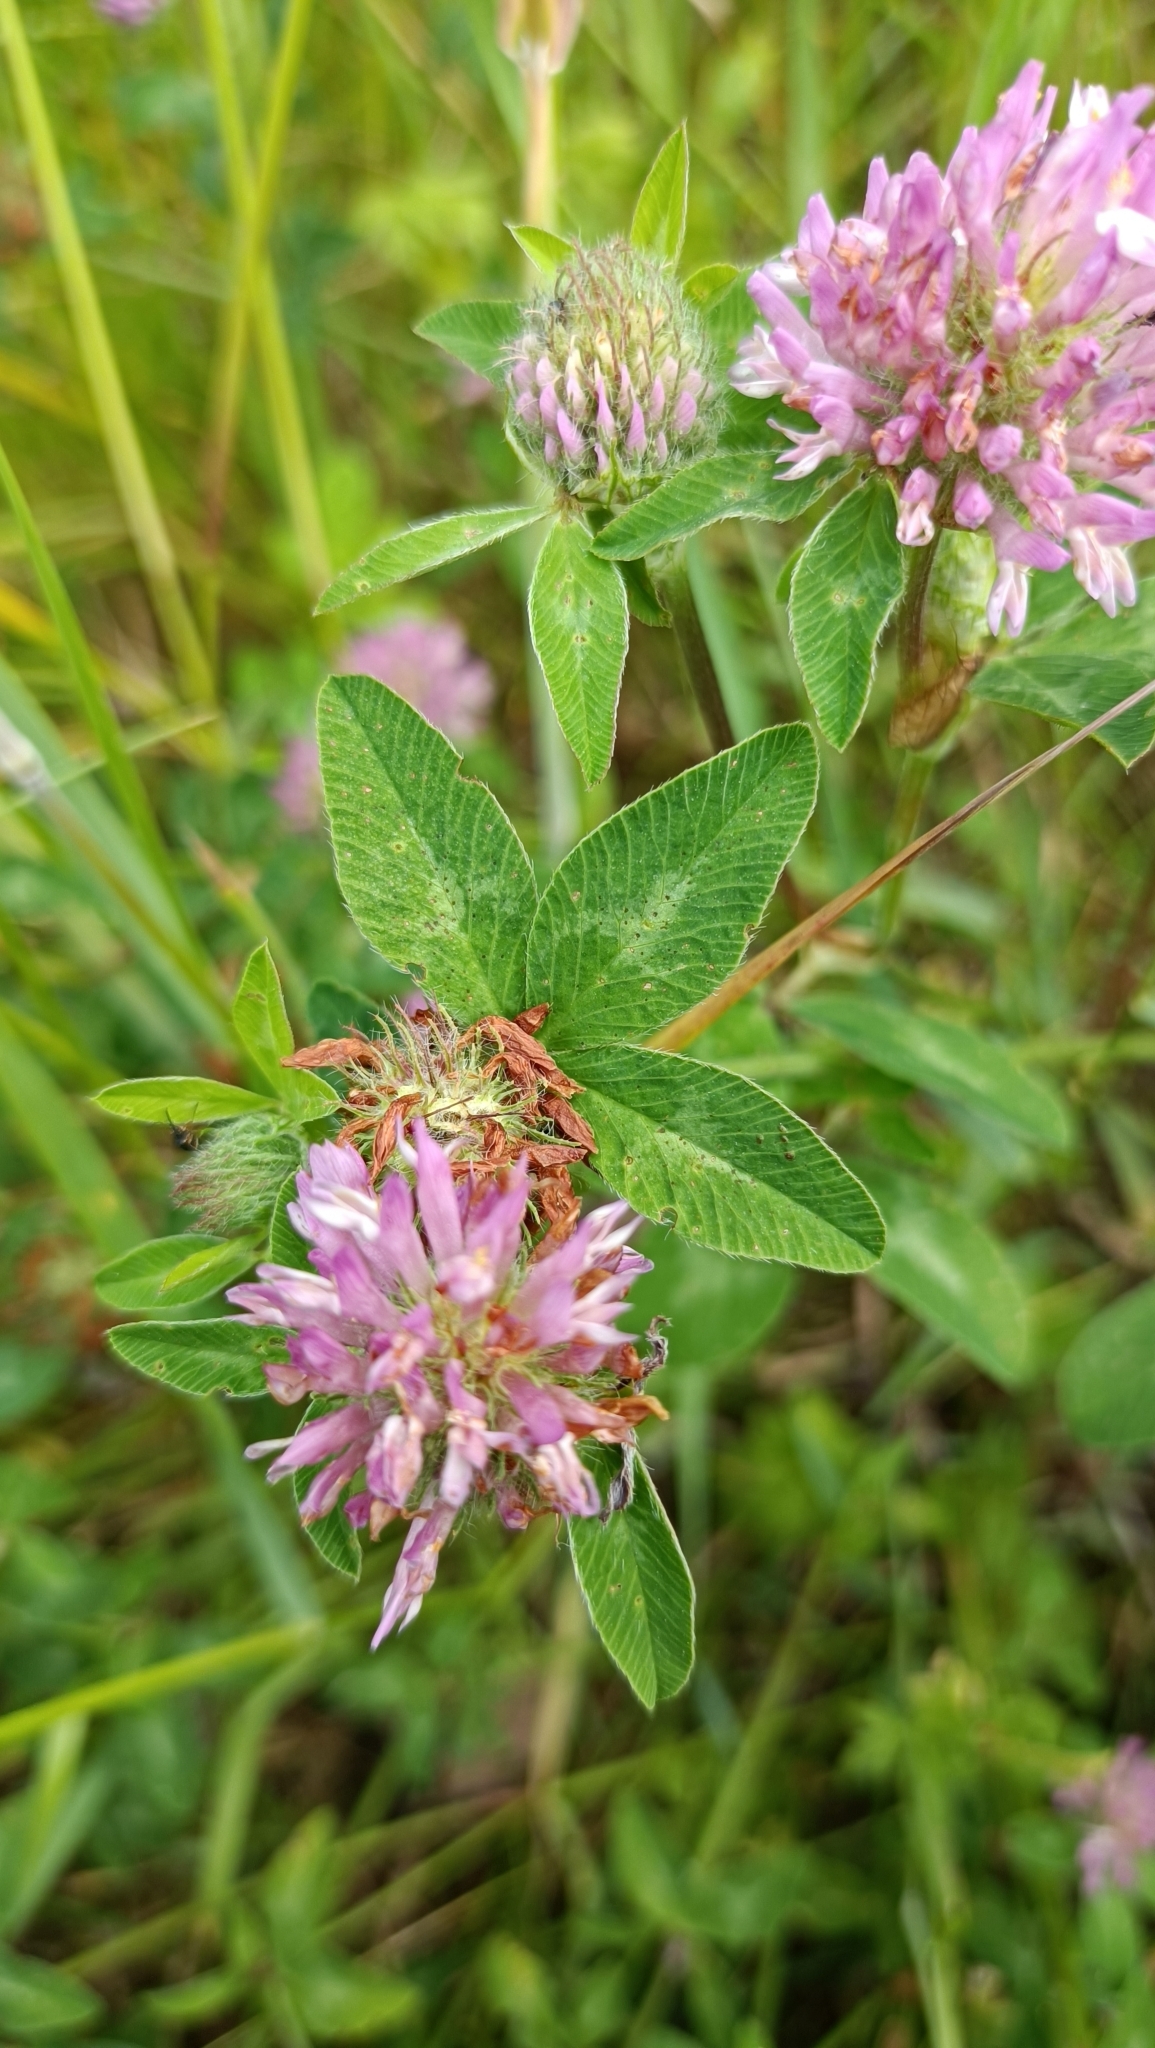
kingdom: Plantae
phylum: Tracheophyta
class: Magnoliopsida
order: Fabales
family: Fabaceae
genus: Trifolium
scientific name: Trifolium pratense
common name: Red clover
